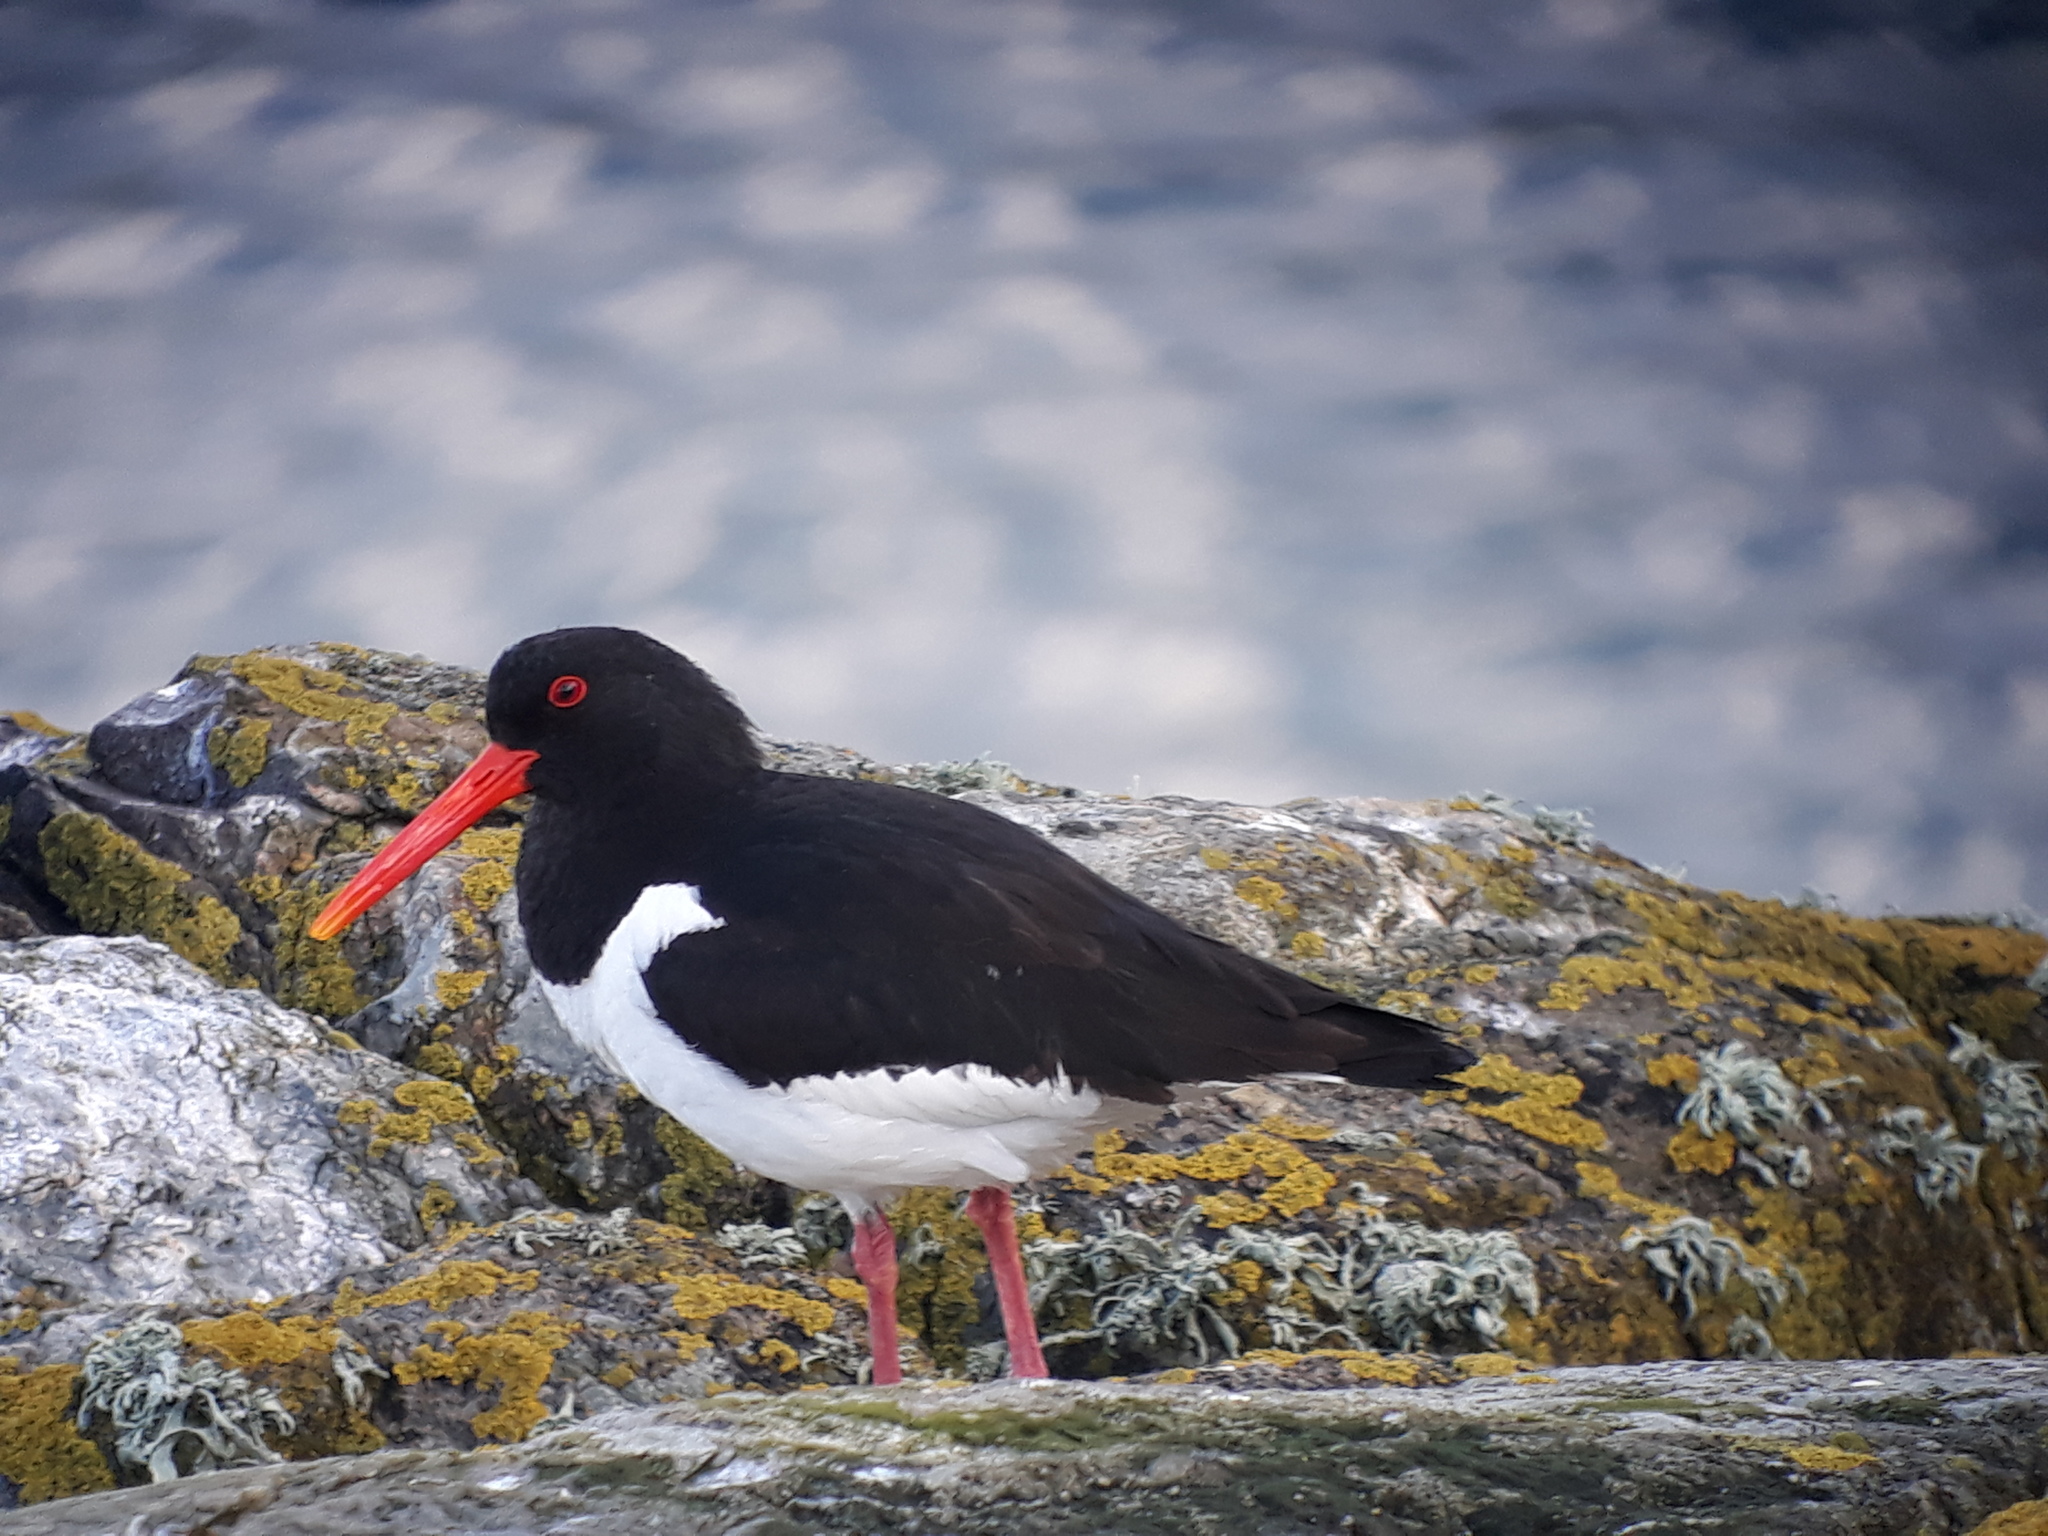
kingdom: Animalia
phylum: Chordata
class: Aves
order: Charadriiformes
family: Haematopodidae
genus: Haematopus
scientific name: Haematopus ostralegus
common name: Eurasian oystercatcher
